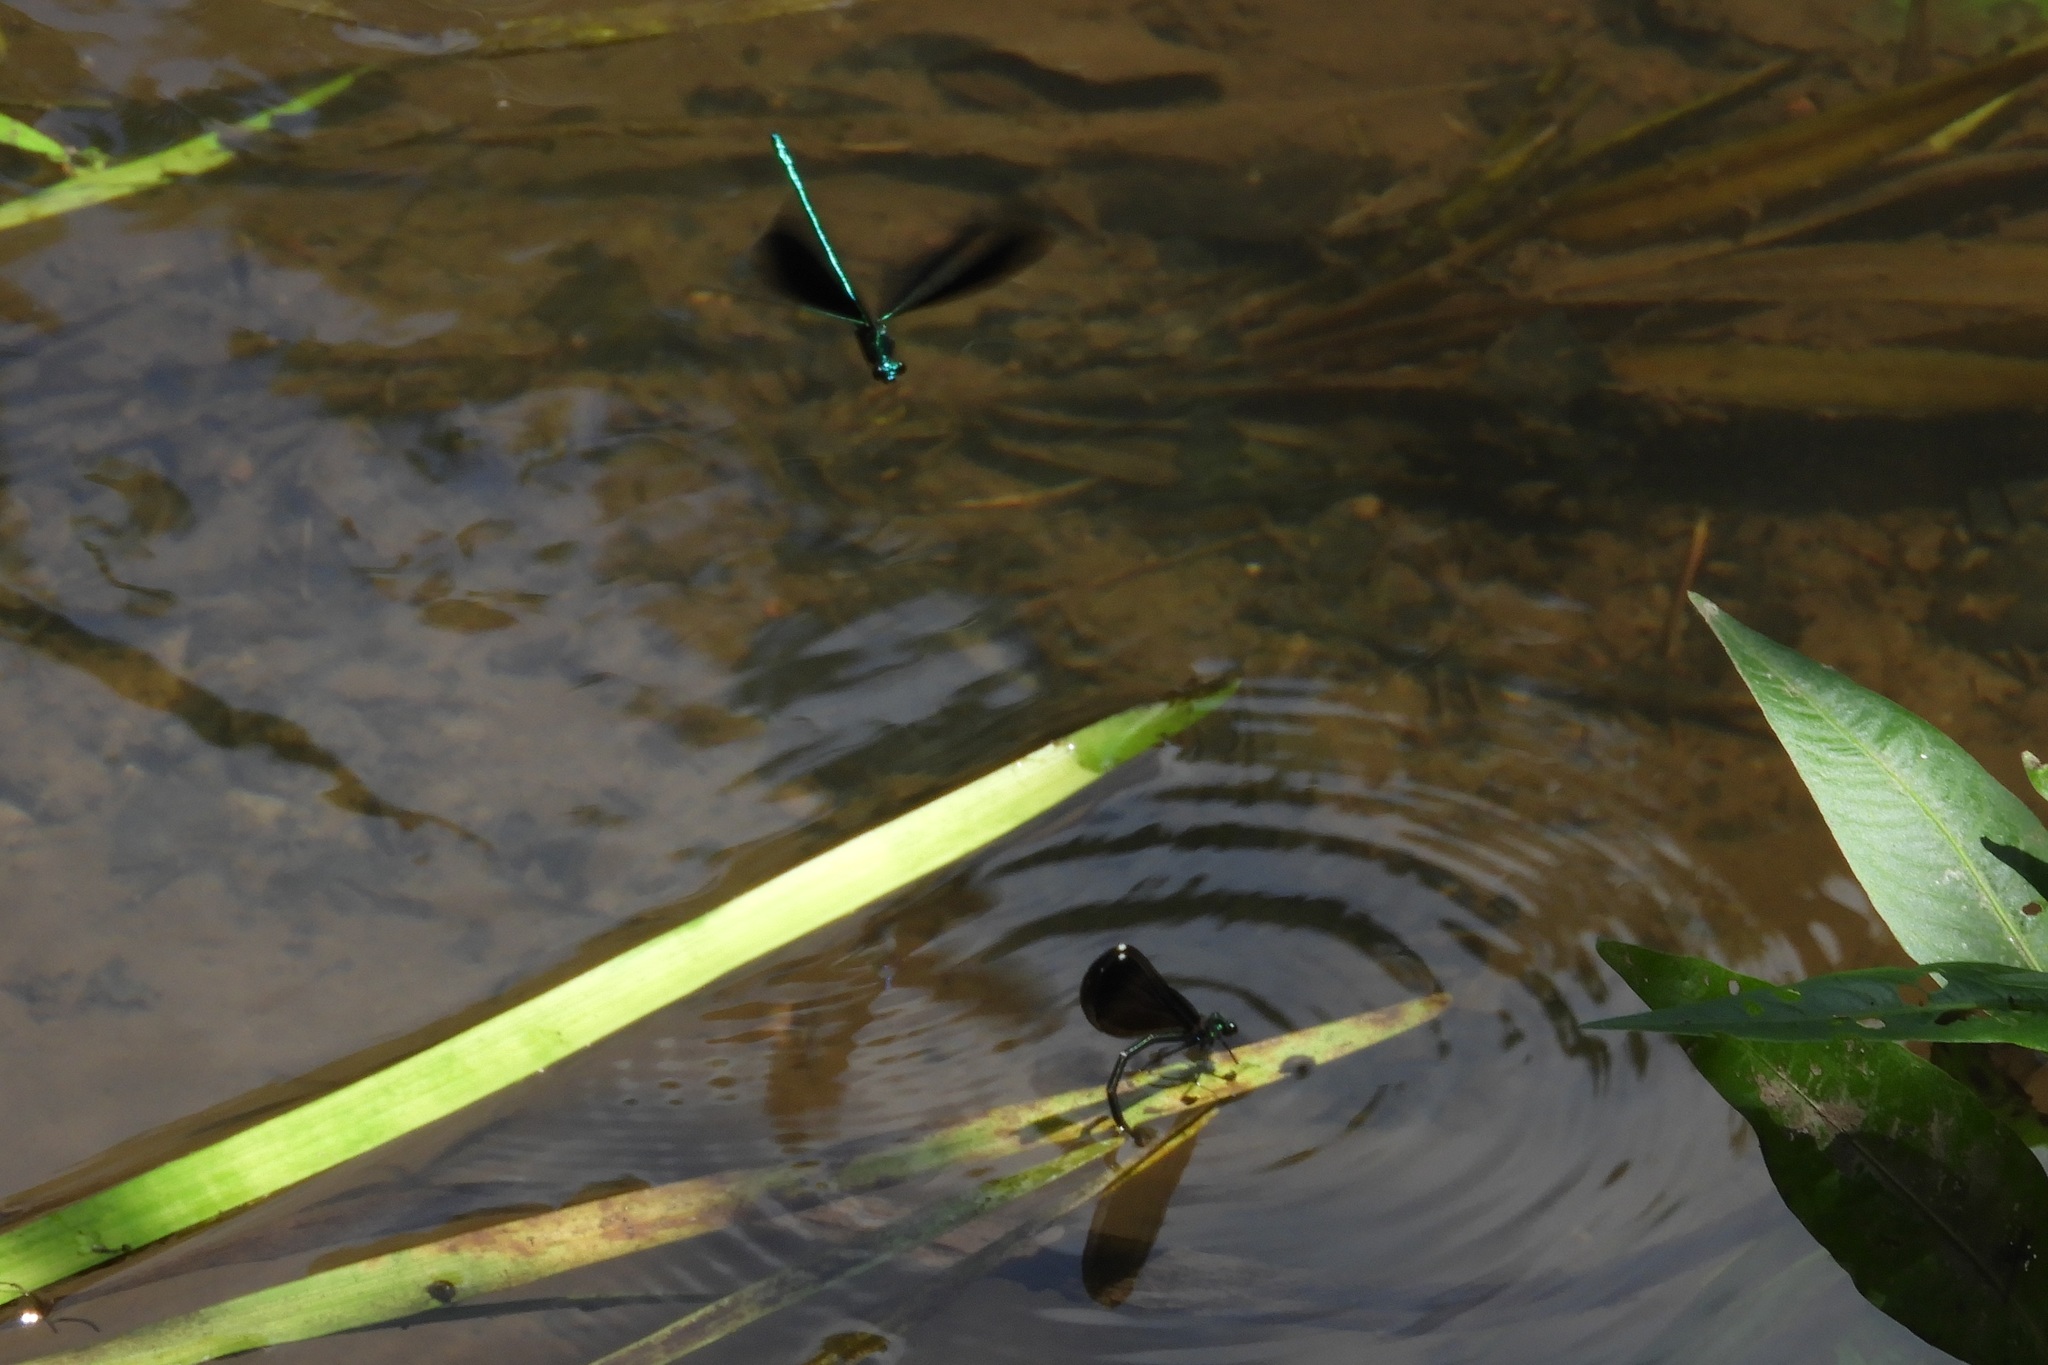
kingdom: Animalia
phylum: Arthropoda
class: Insecta
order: Odonata
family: Calopterygidae
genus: Calopteryx
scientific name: Calopteryx maculata
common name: Ebony jewelwing
